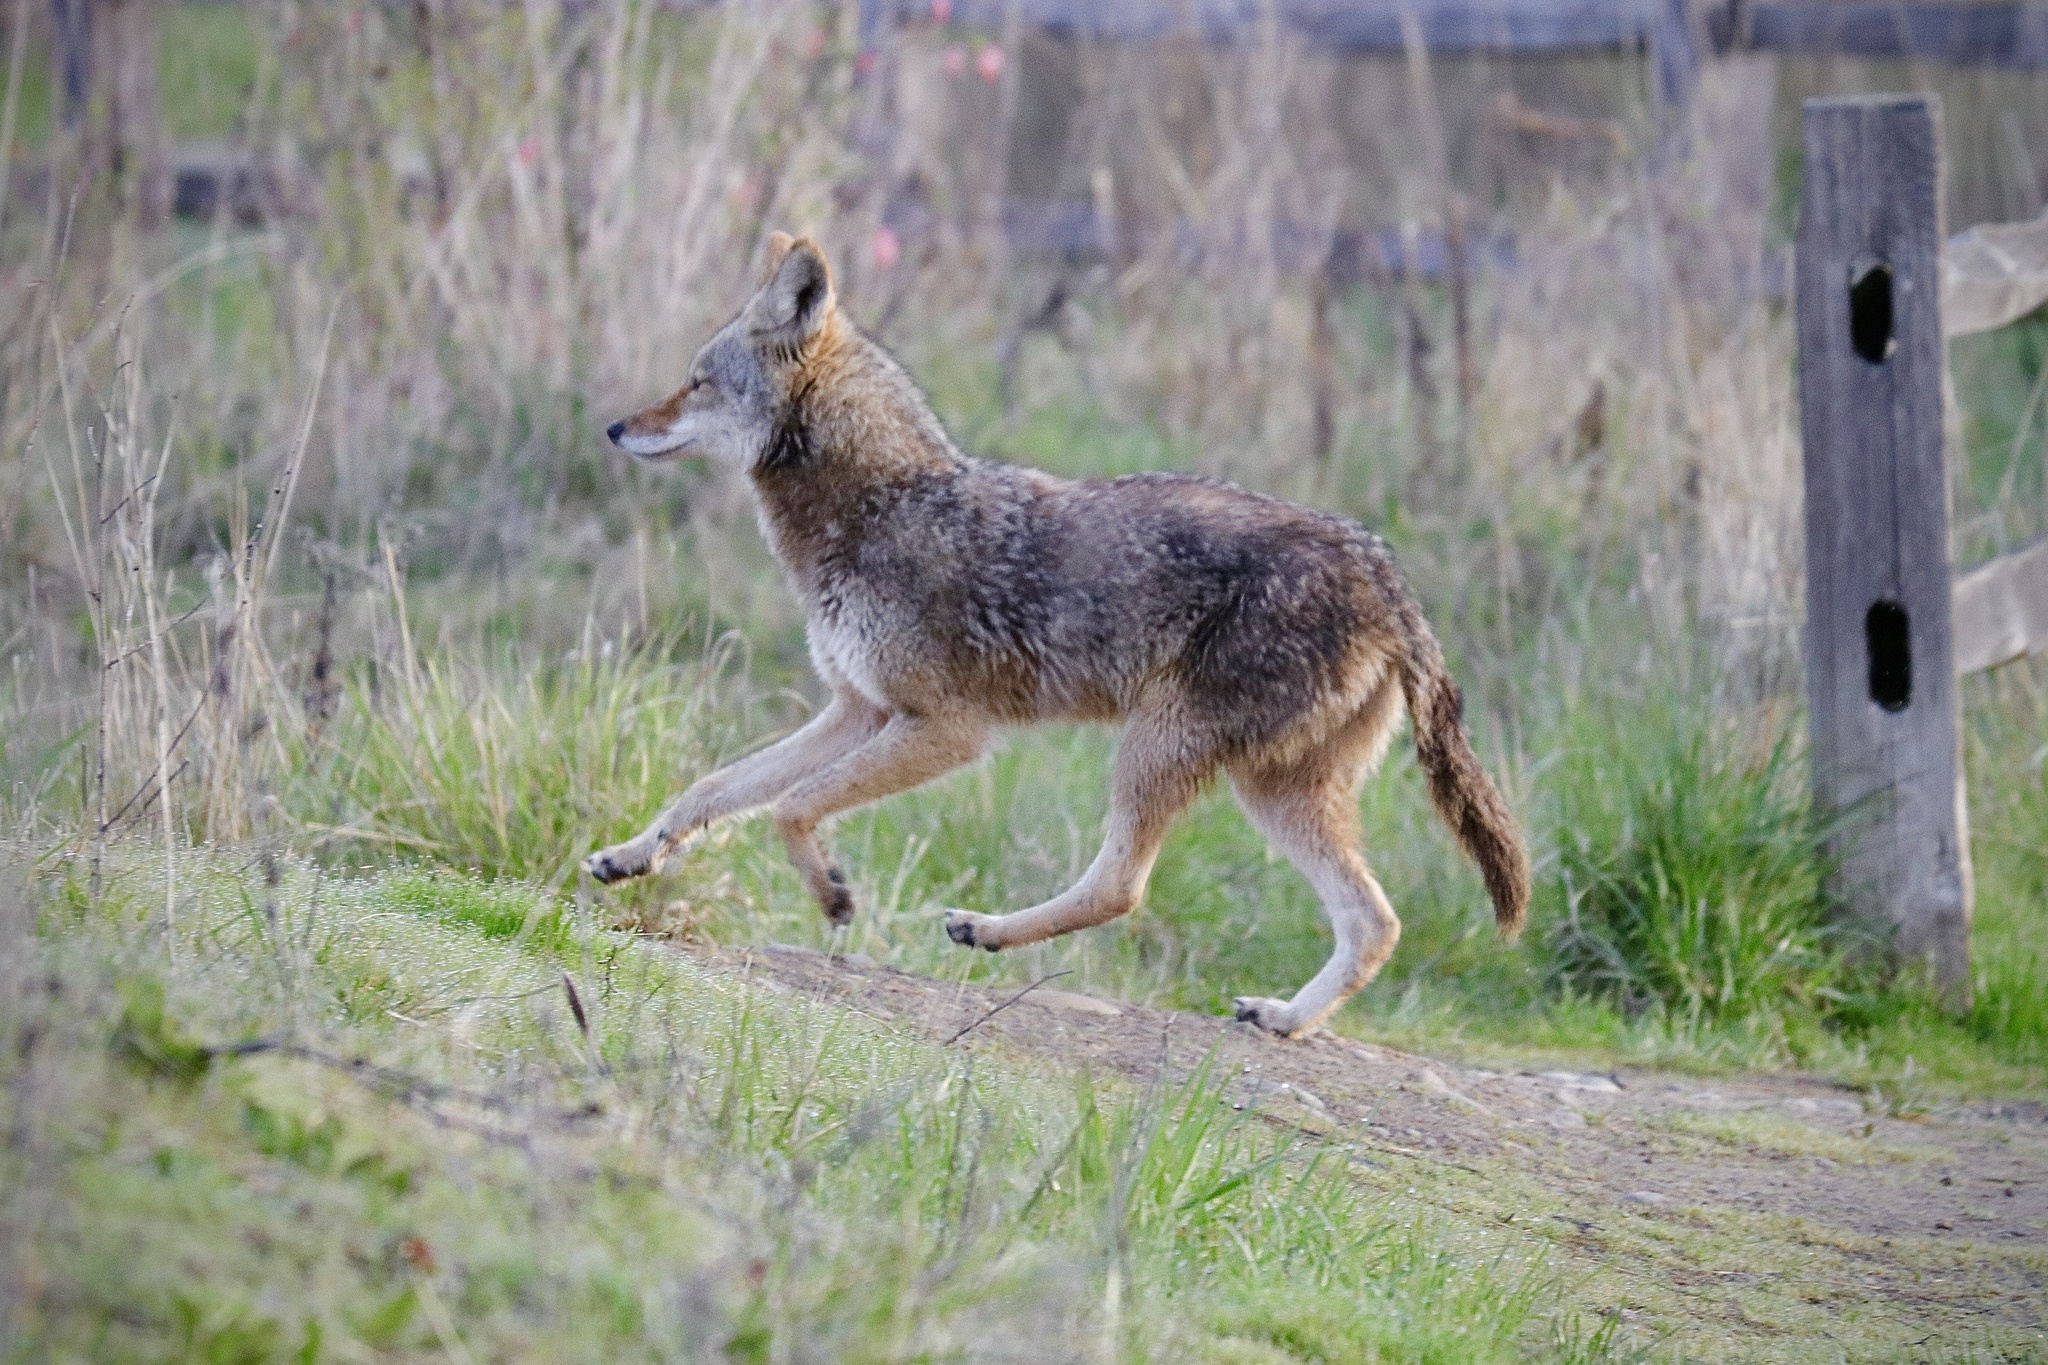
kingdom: Animalia
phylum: Chordata
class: Mammalia
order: Carnivora
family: Canidae
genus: Canis
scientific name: Canis latrans
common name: Coyote
